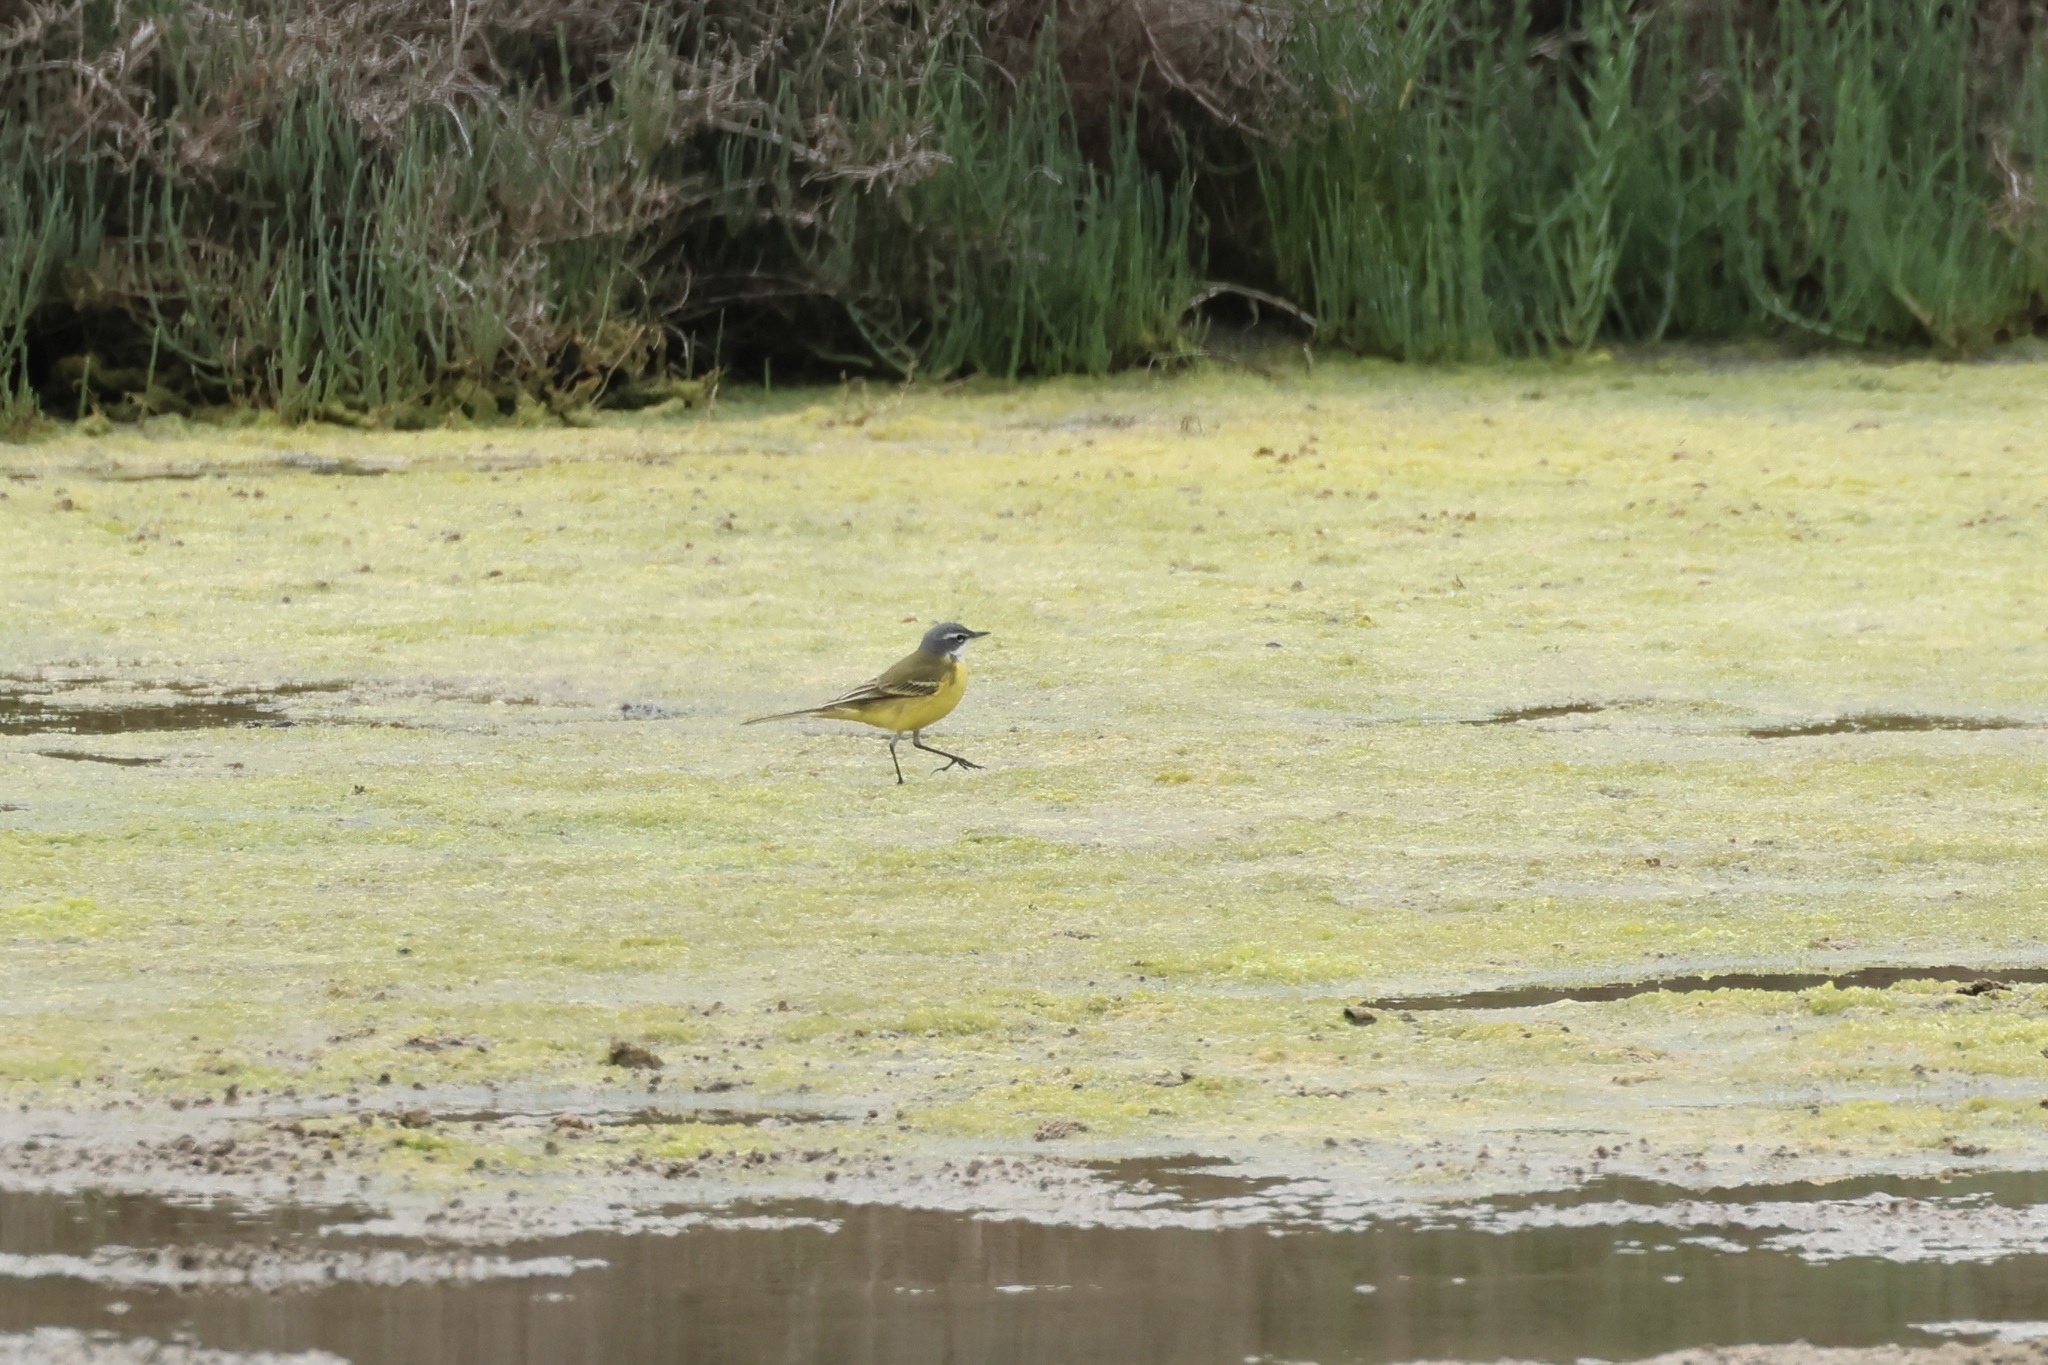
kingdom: Animalia
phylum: Chordata
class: Aves
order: Passeriformes
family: Motacillidae
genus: Motacilla
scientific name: Motacilla flava
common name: Western yellow wagtail
